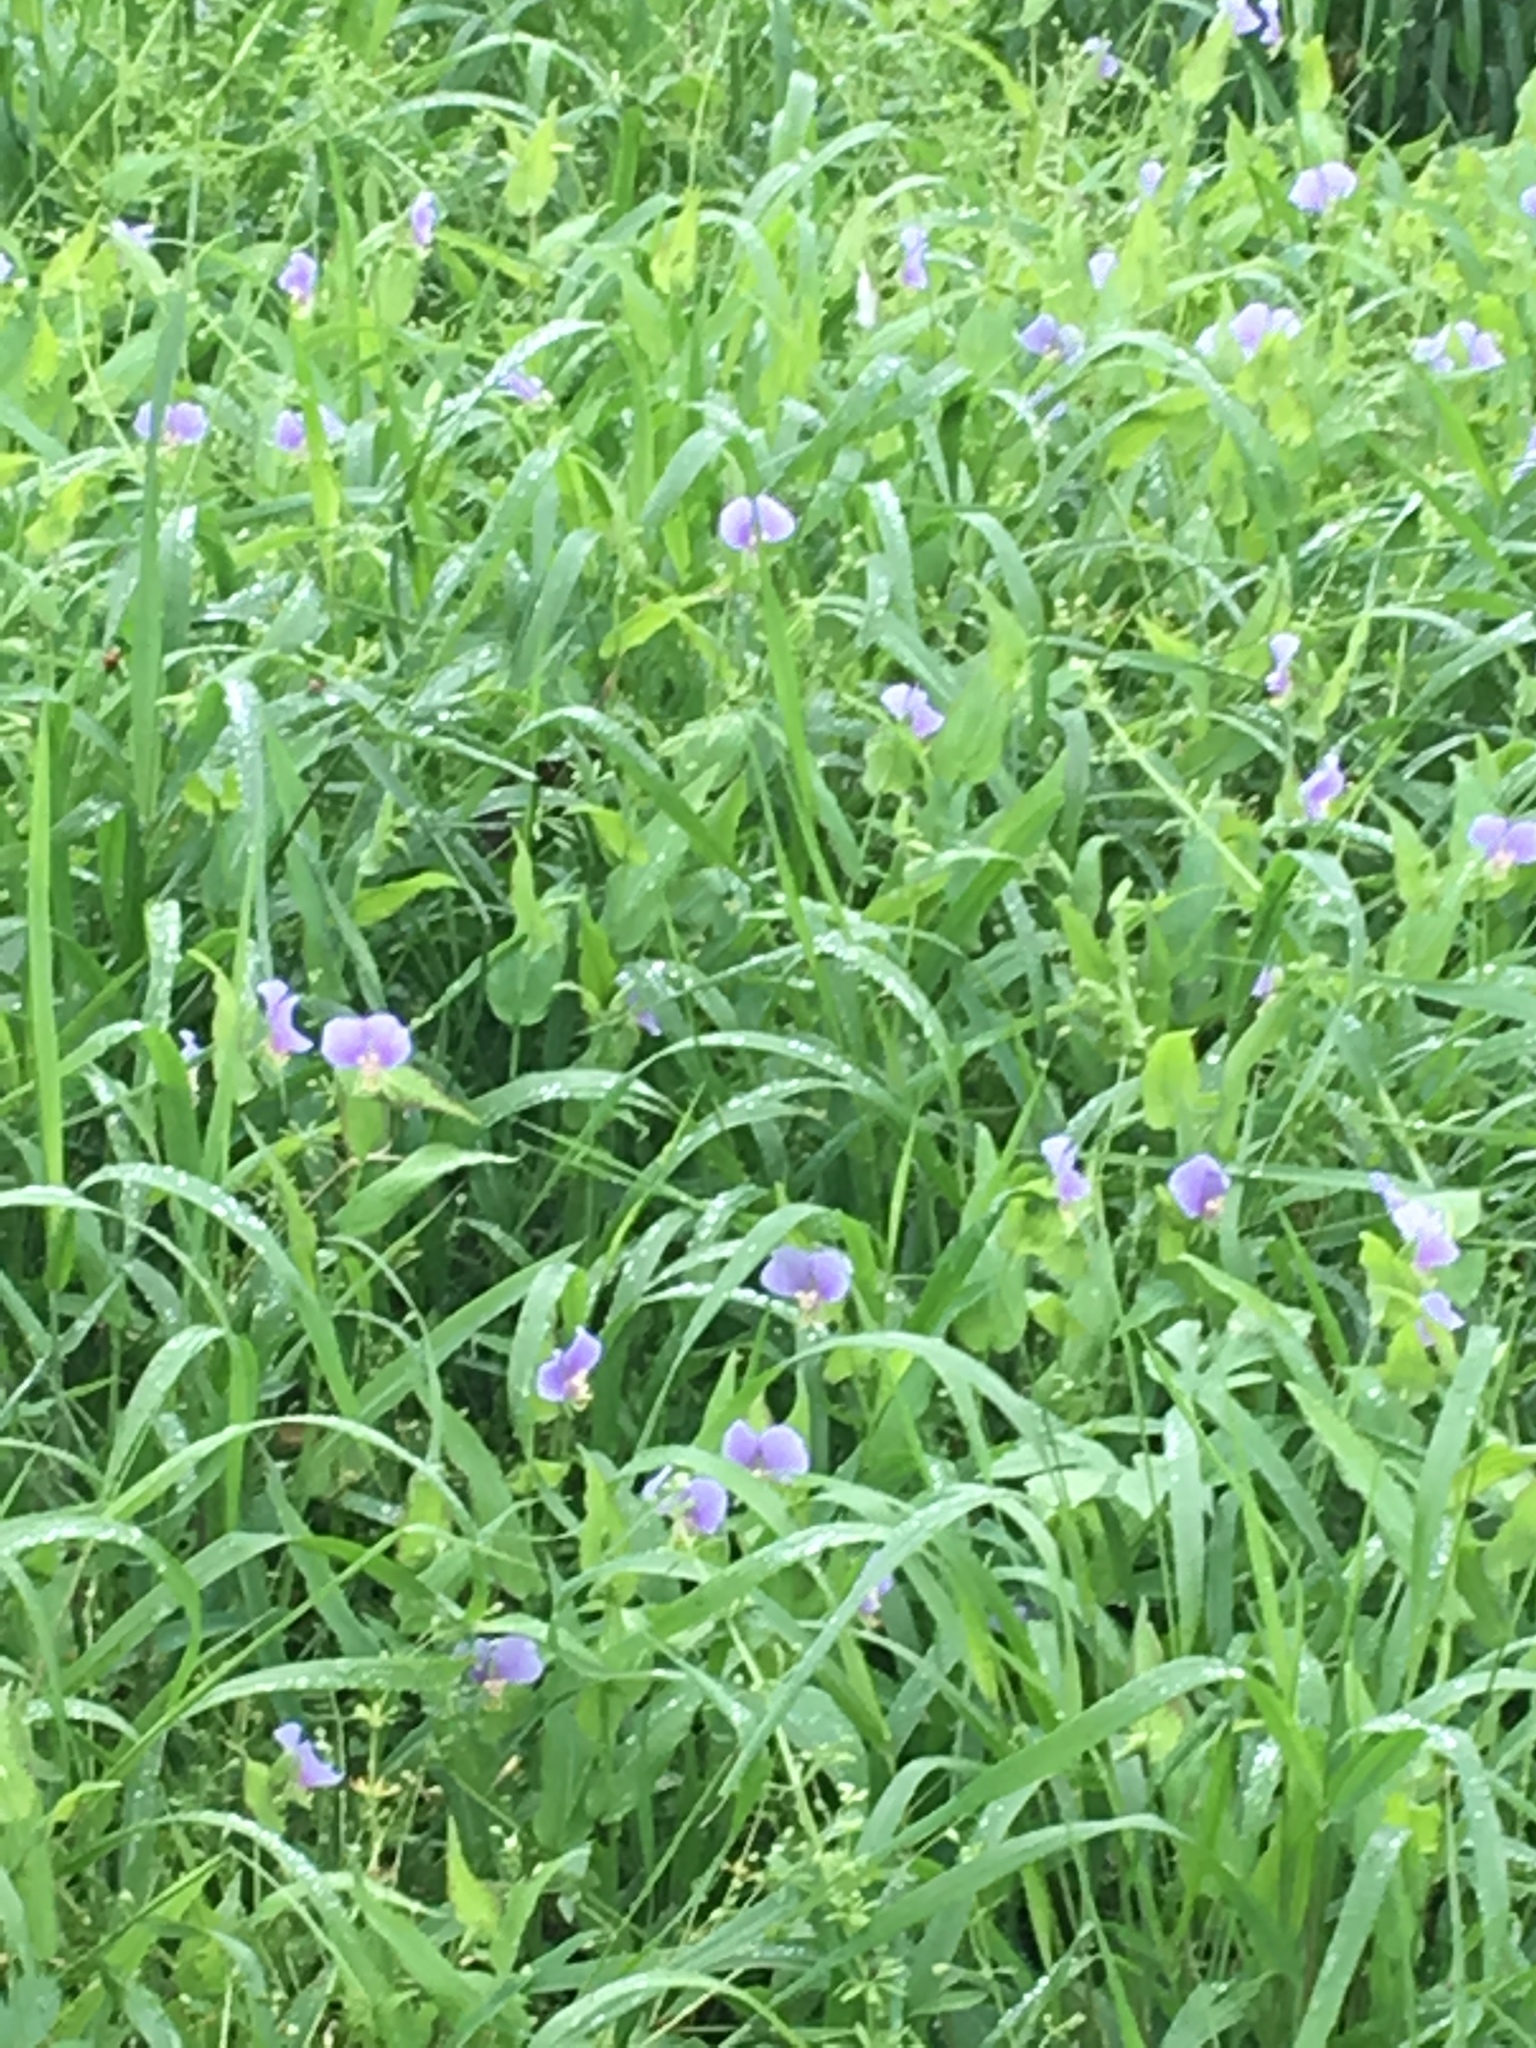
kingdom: Plantae
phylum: Tracheophyta
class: Liliopsida
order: Commelinales
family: Commelinaceae
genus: Tinantia
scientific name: Tinantia anomala
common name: False dayflower
